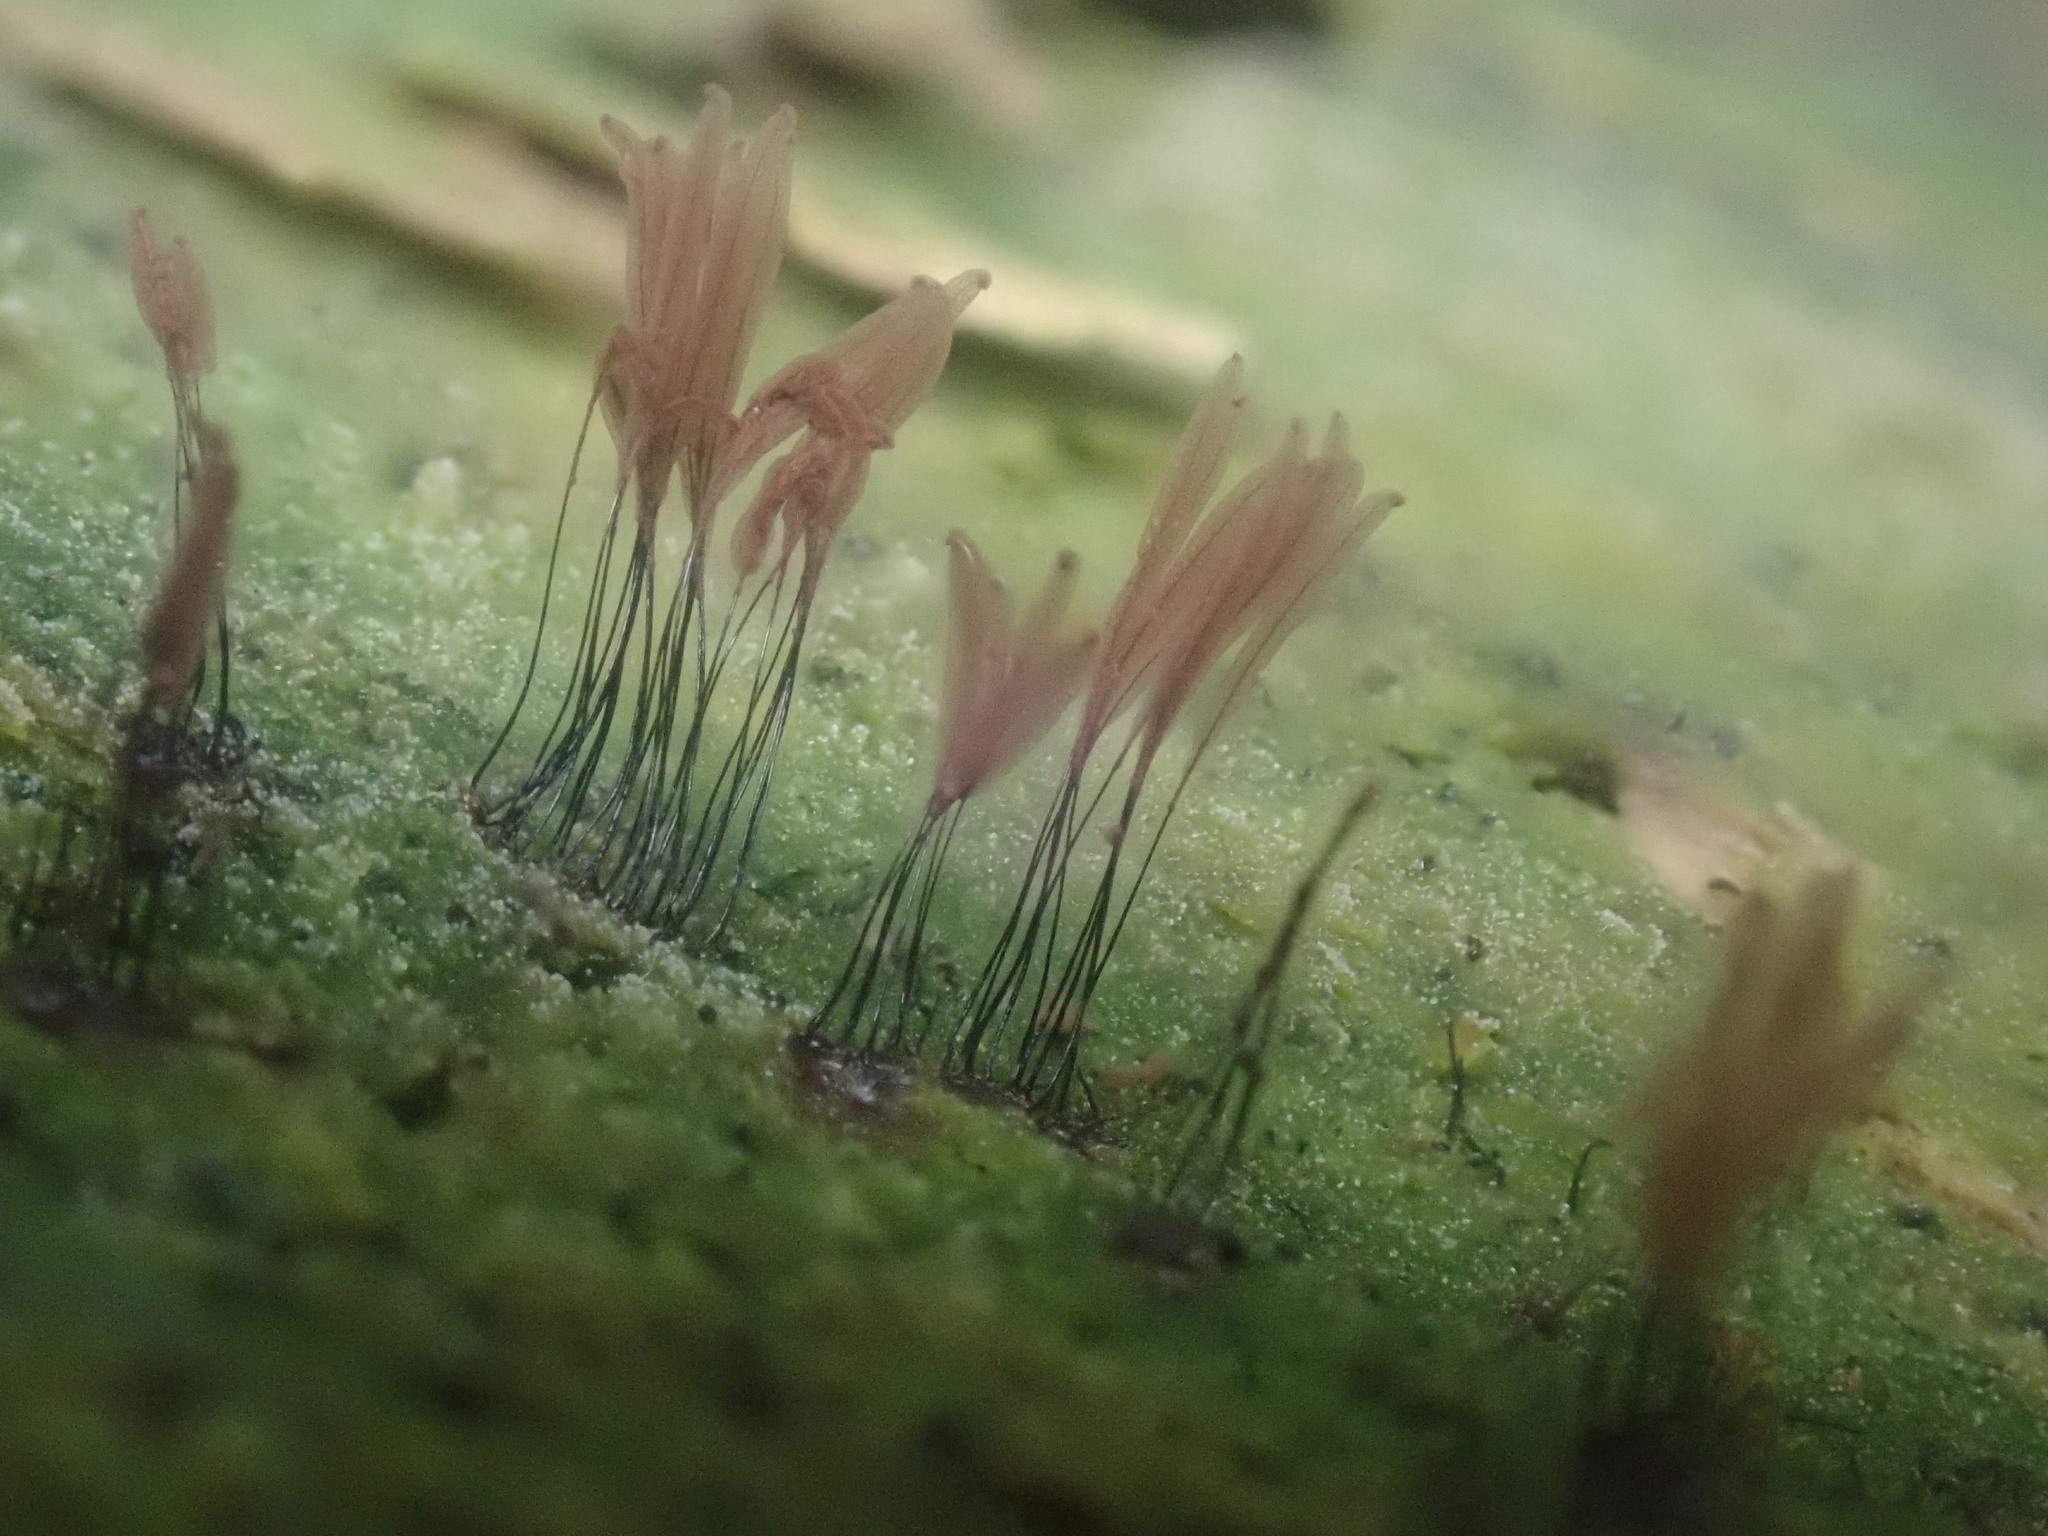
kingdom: Protozoa
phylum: Mycetozoa
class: Myxomycetes
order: Stemonitidales
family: Stemonitidaceae
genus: Stemonitis
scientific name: Stemonitis
